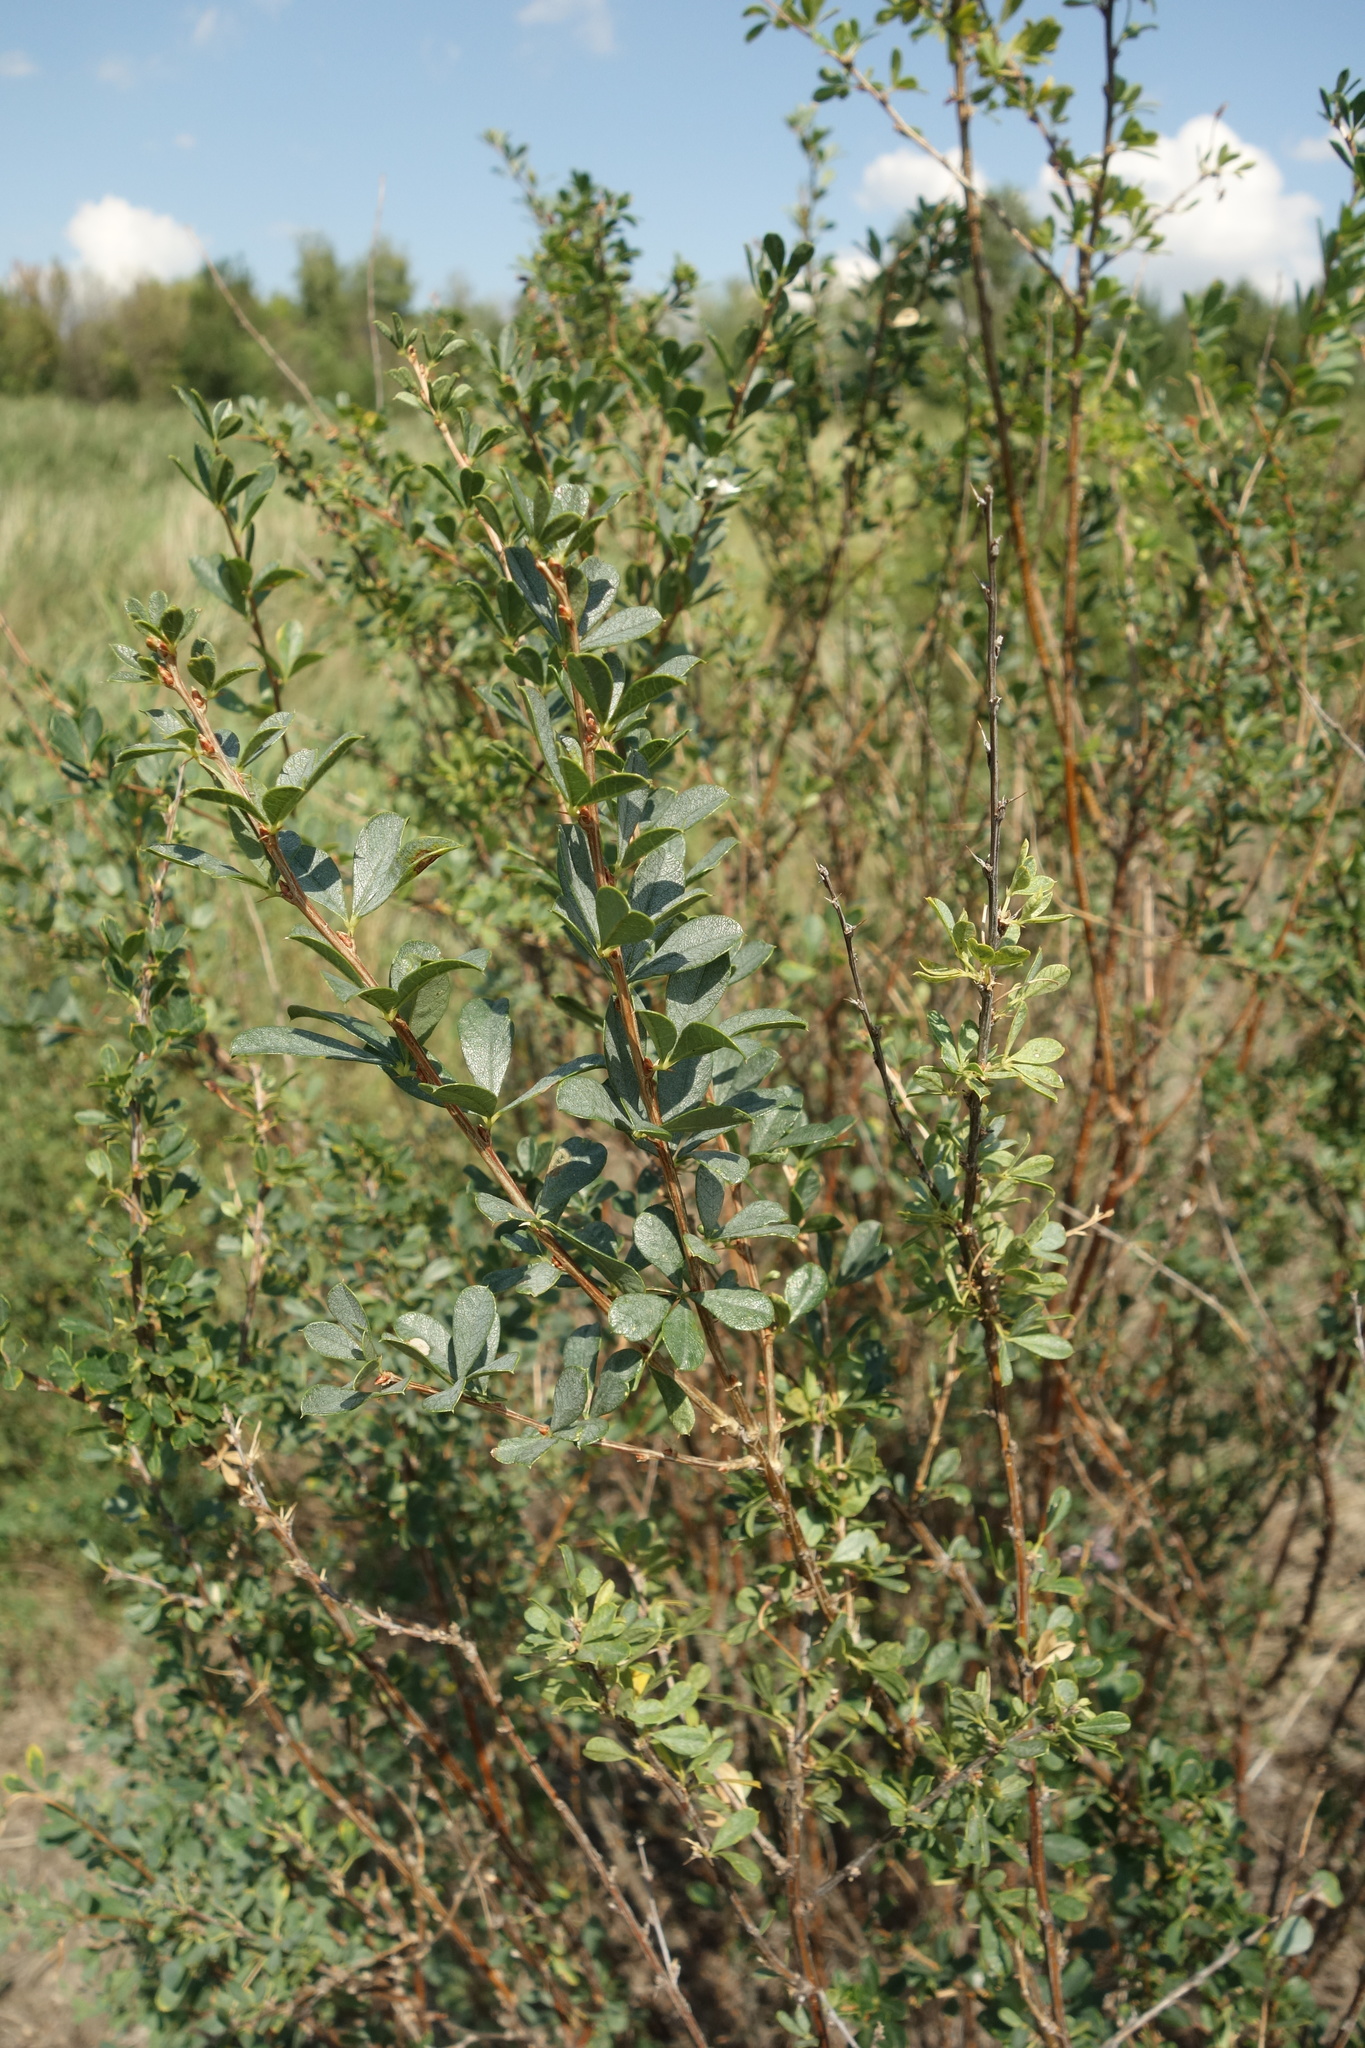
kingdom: Plantae
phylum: Tracheophyta
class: Magnoliopsida
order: Fabales
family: Fabaceae
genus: Caragana
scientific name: Caragana frutex
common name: Russian peashrub
